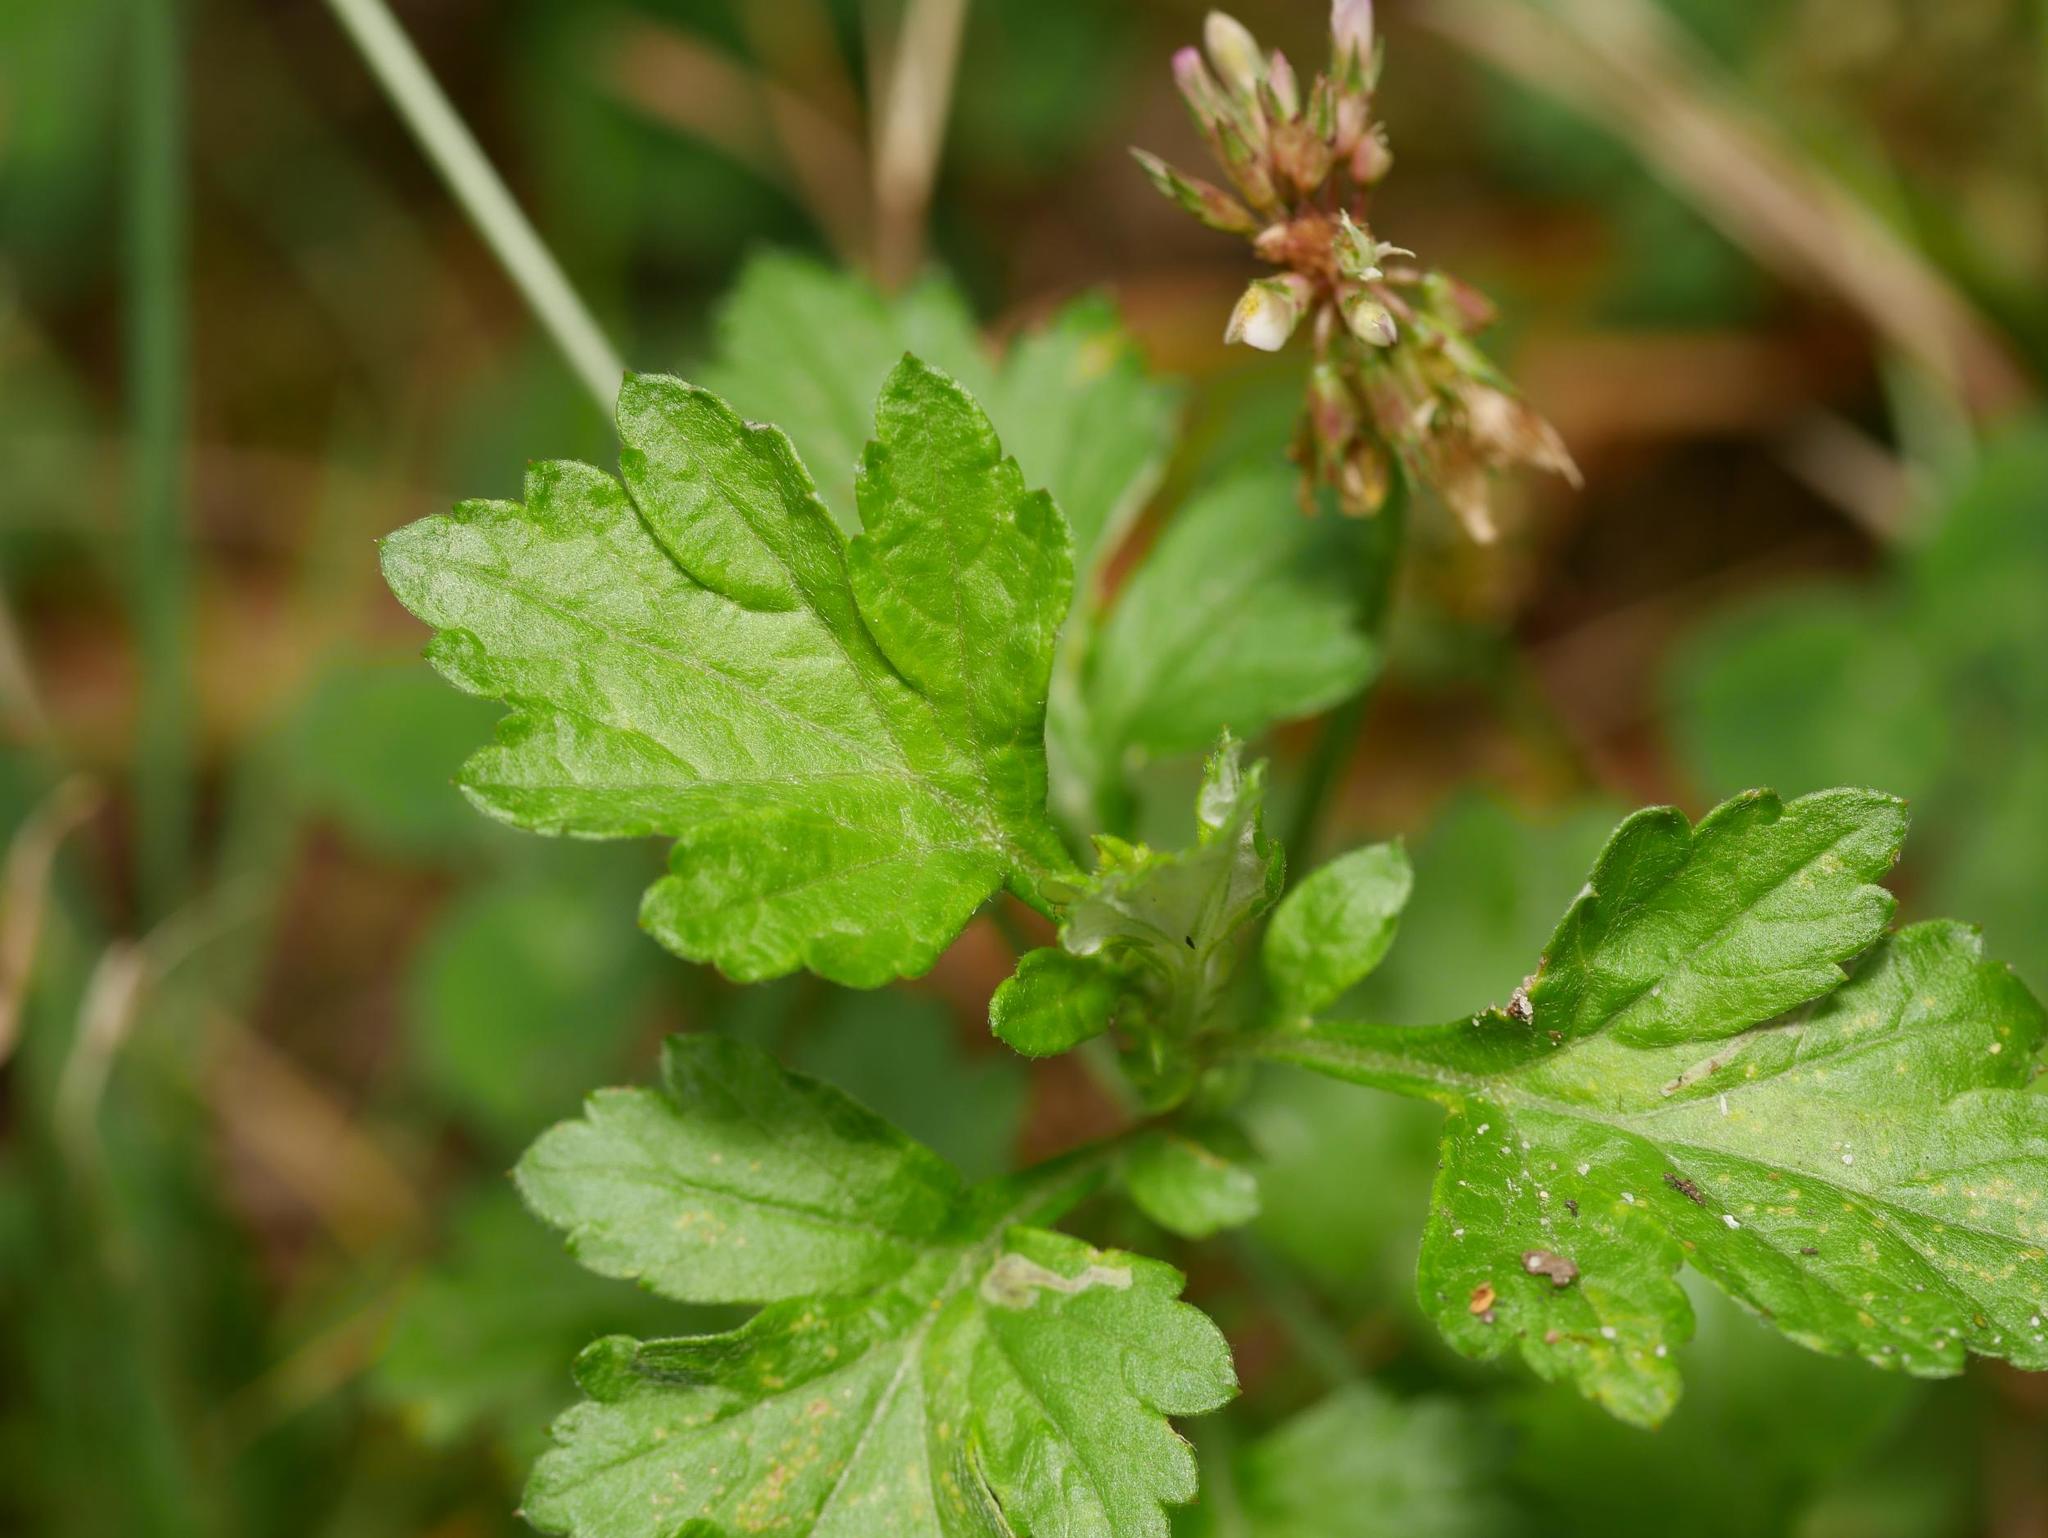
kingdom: Plantae
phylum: Tracheophyta
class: Magnoliopsida
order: Asterales
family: Asteraceae
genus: Artemisia
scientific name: Artemisia vulgaris
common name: Mugwort
